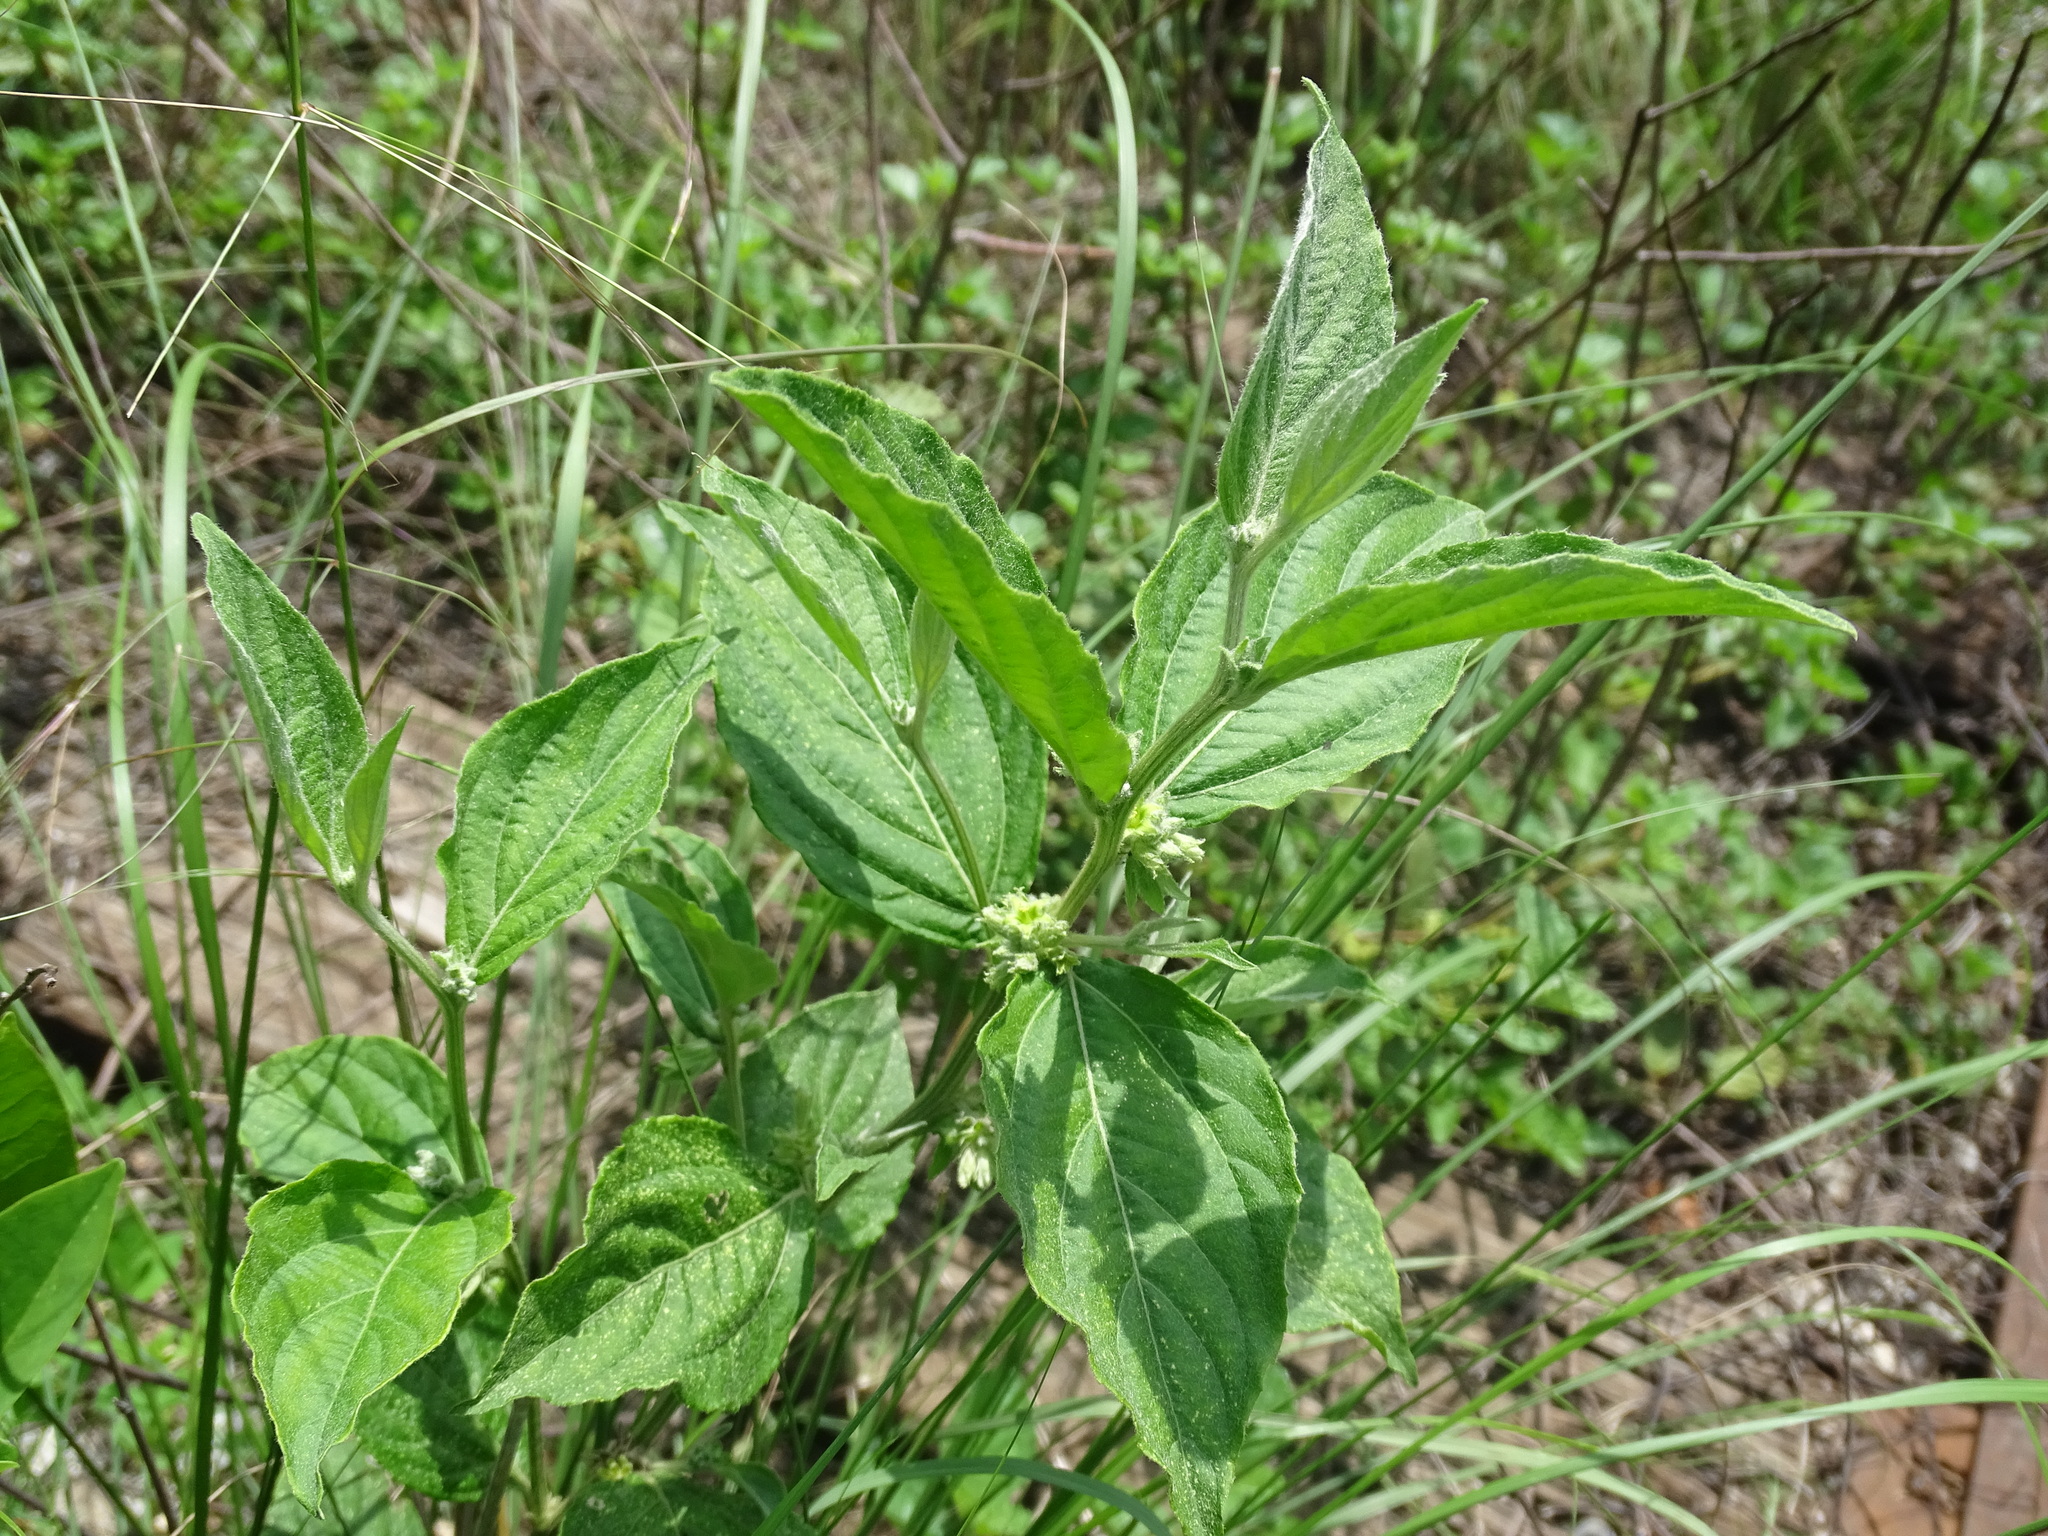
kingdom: Plantae
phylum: Tracheophyta
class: Magnoliopsida
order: Malpighiales
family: Euphorbiaceae
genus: Ditaxis
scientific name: Ditaxis guatemalensis
